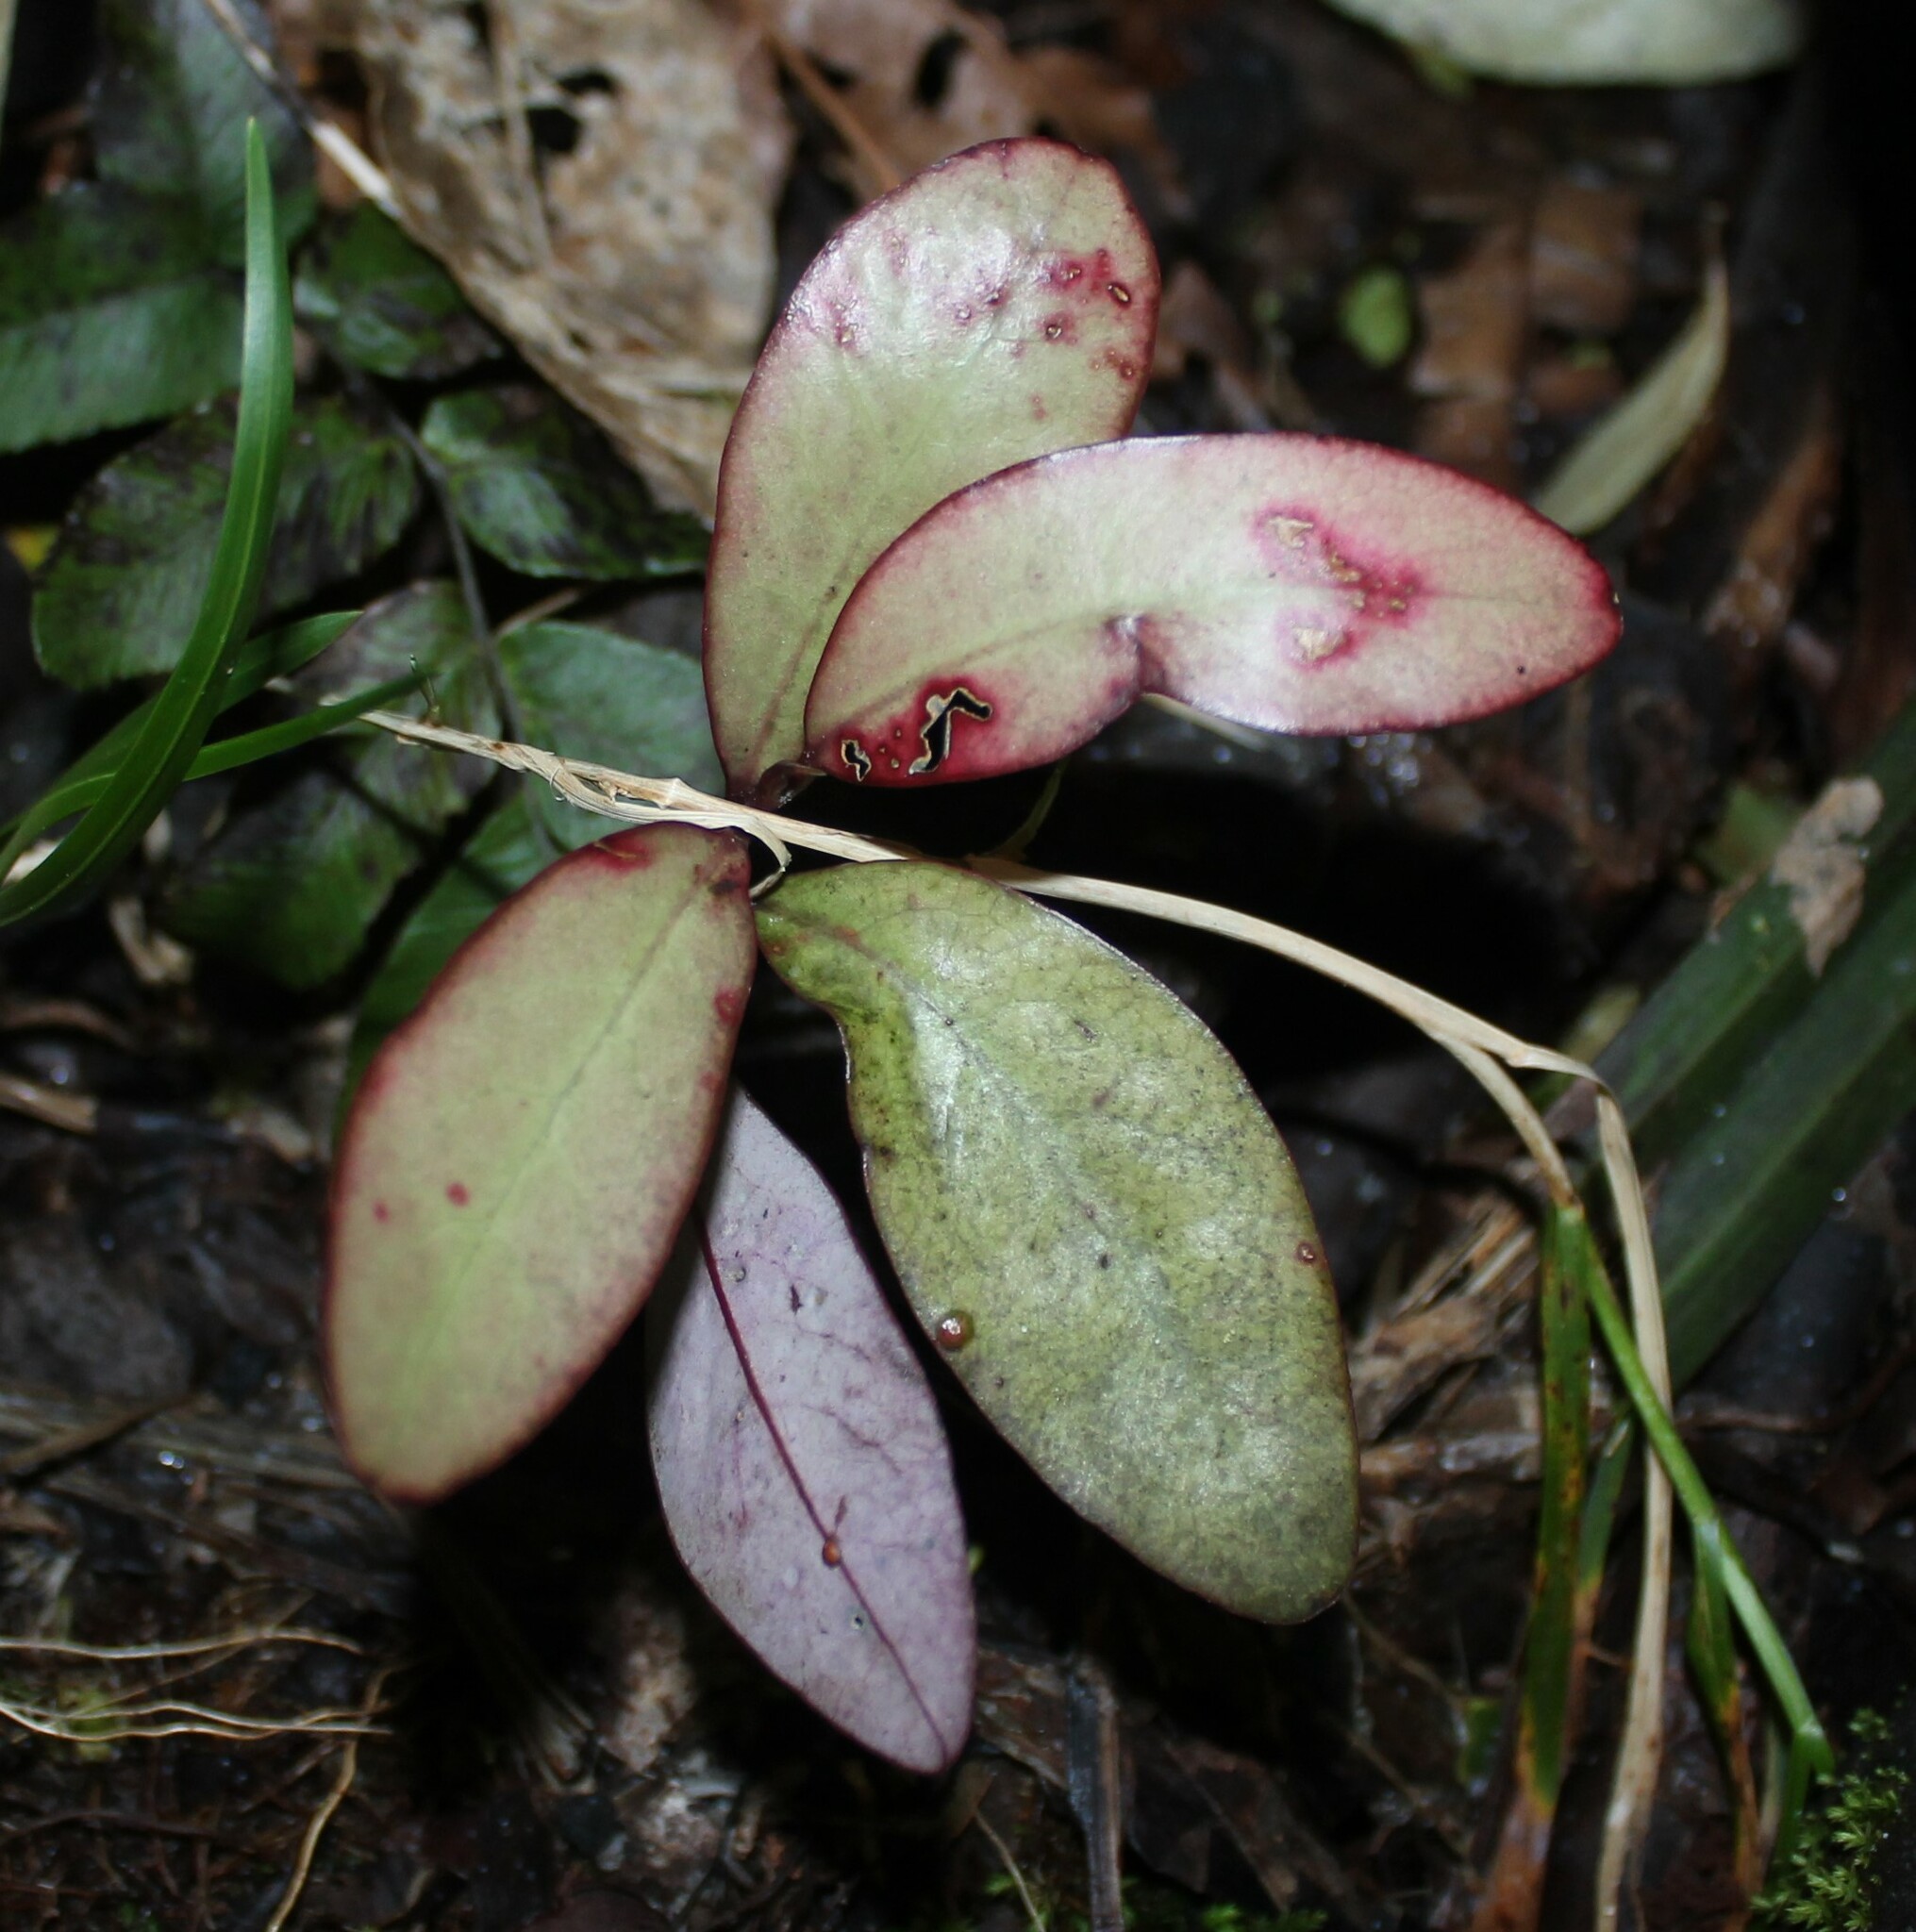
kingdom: Plantae
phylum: Tracheophyta
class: Magnoliopsida
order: Canellales
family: Winteraceae
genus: Pseudowintera
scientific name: Pseudowintera colorata
